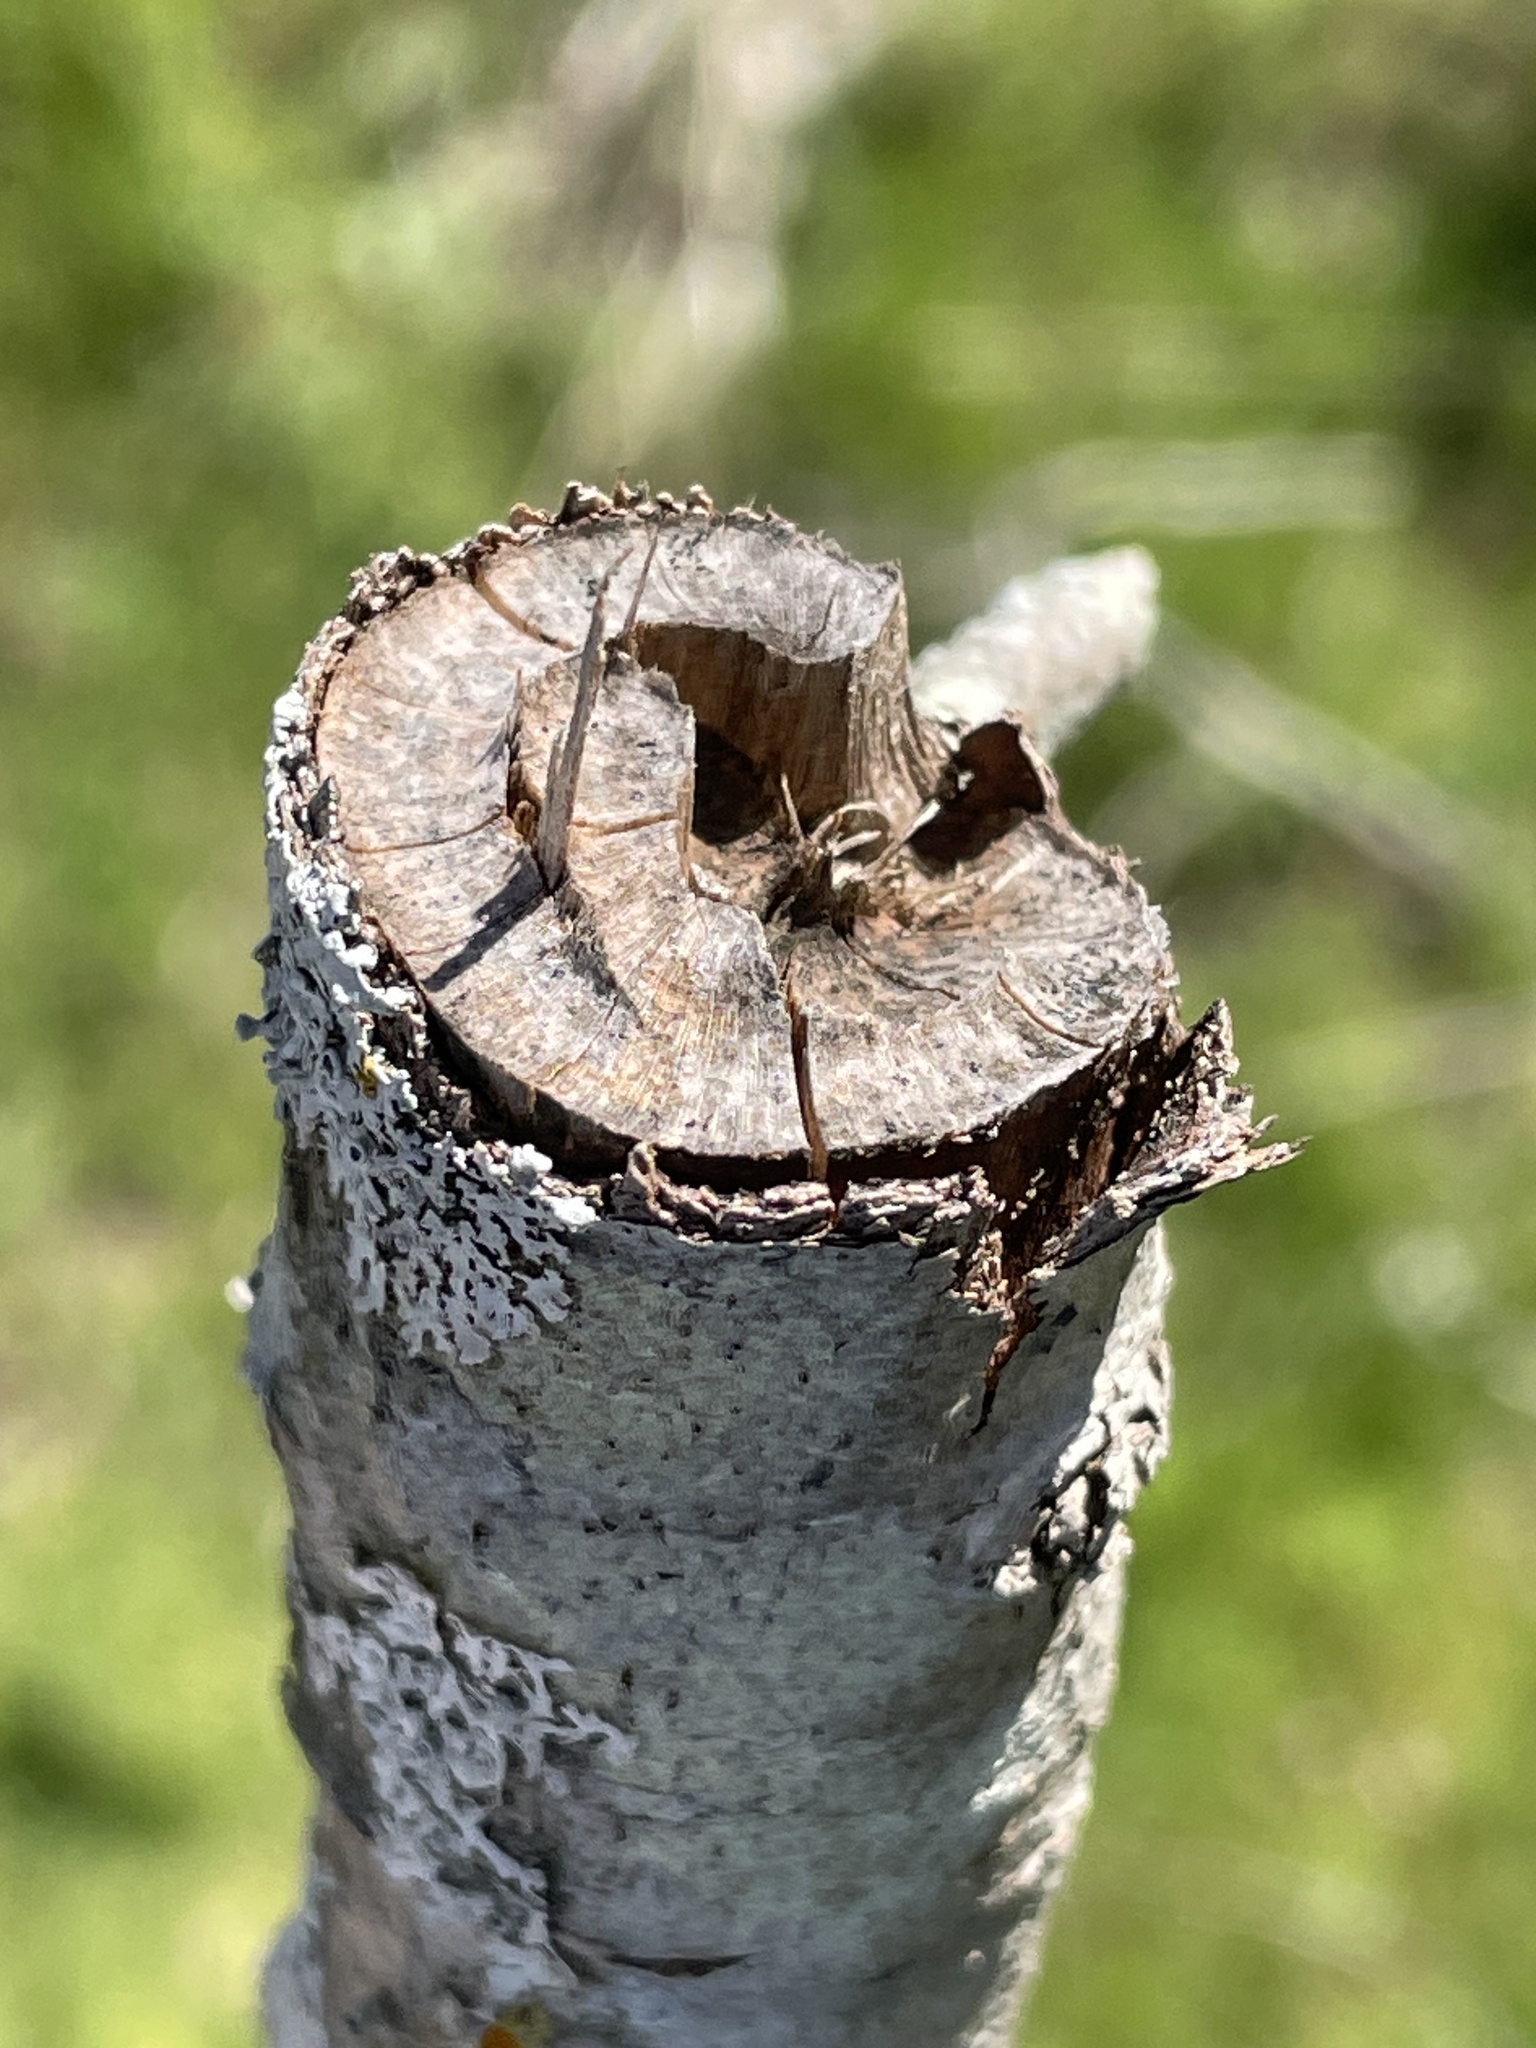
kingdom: Animalia
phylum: Arthropoda
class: Insecta
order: Coleoptera
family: Cerambycidae
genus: Oncideres
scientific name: Oncideres cingulata
